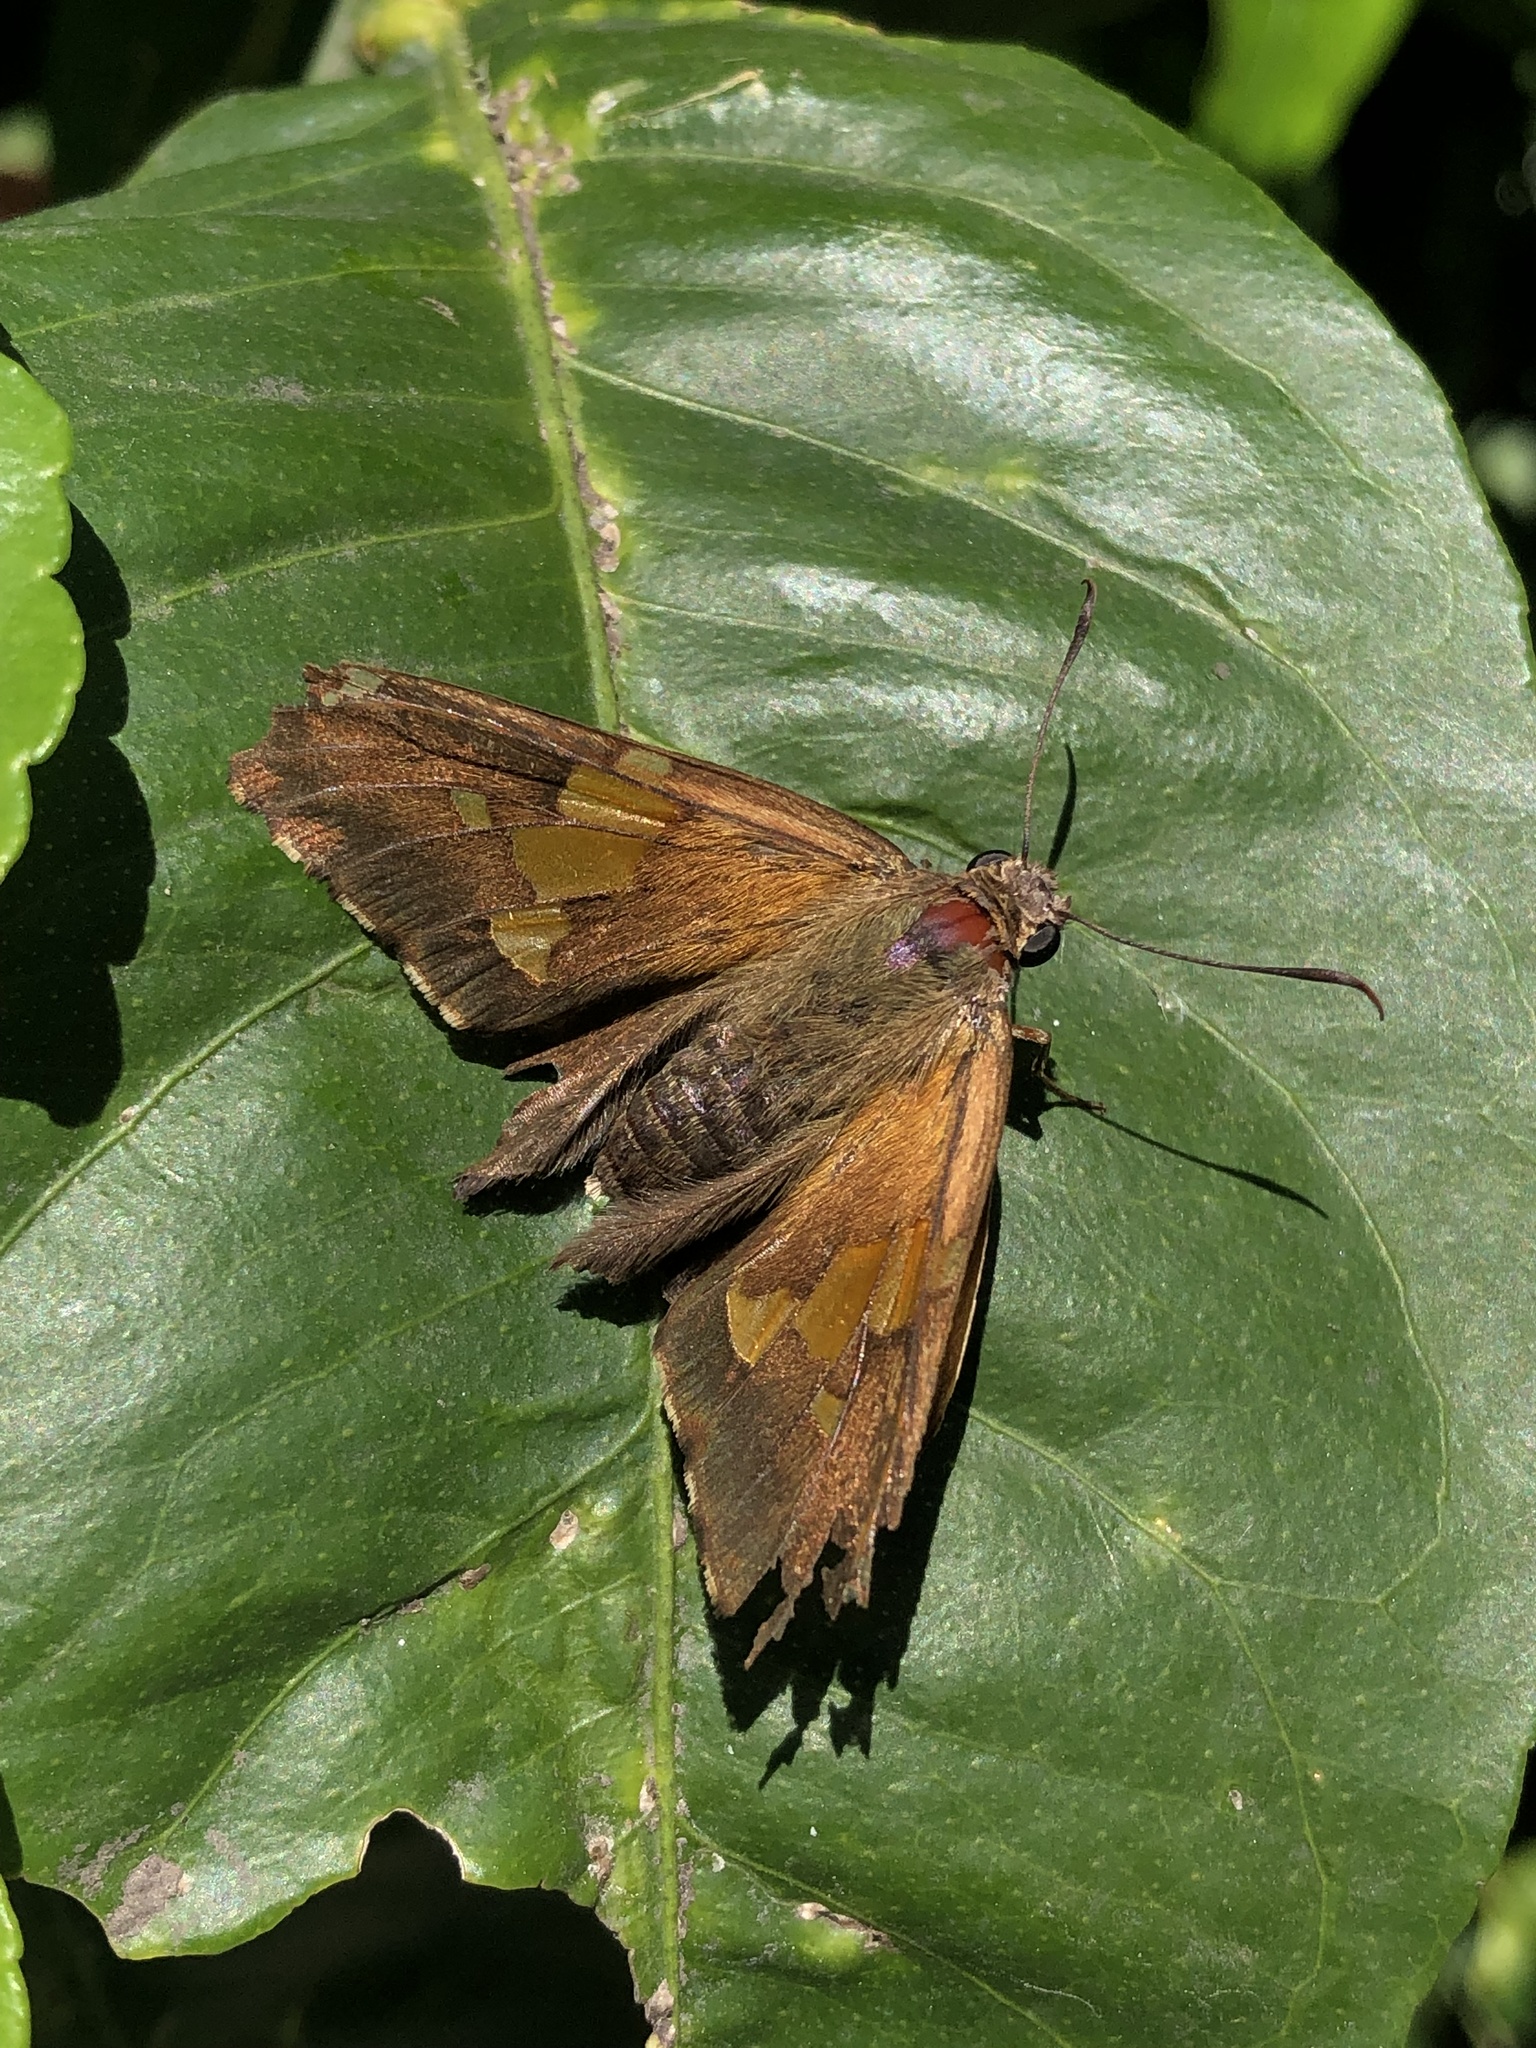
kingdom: Animalia
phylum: Arthropoda
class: Insecta
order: Lepidoptera
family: Hesperiidae
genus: Epargyreus
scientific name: Epargyreus tmolis
